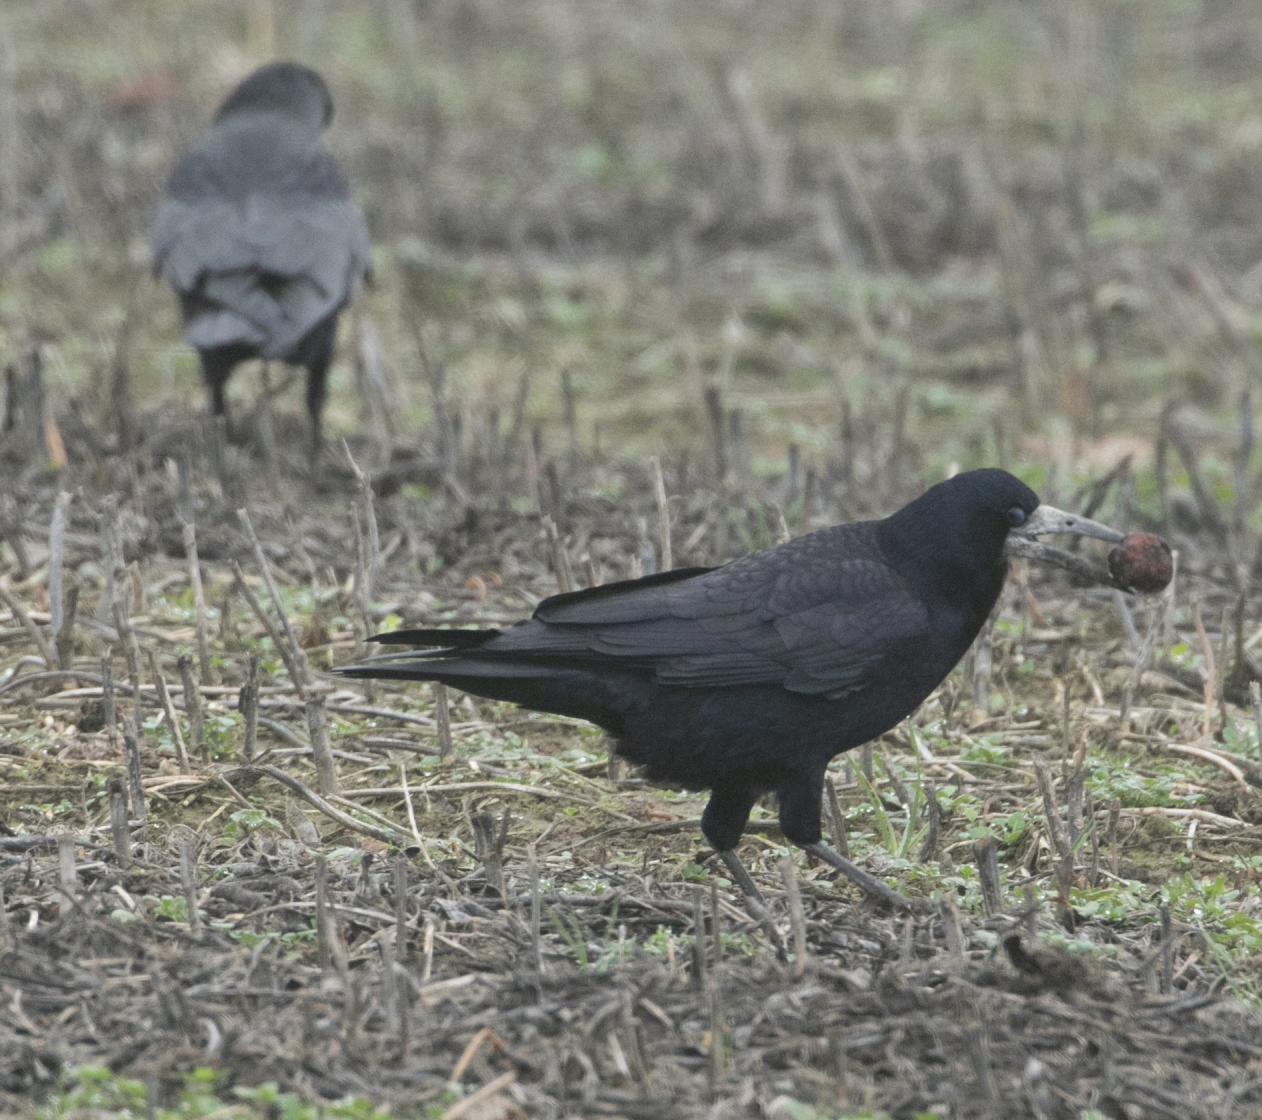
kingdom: Animalia
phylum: Chordata
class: Aves
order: Passeriformes
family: Corvidae
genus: Corvus
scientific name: Corvus frugilegus
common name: Rook
